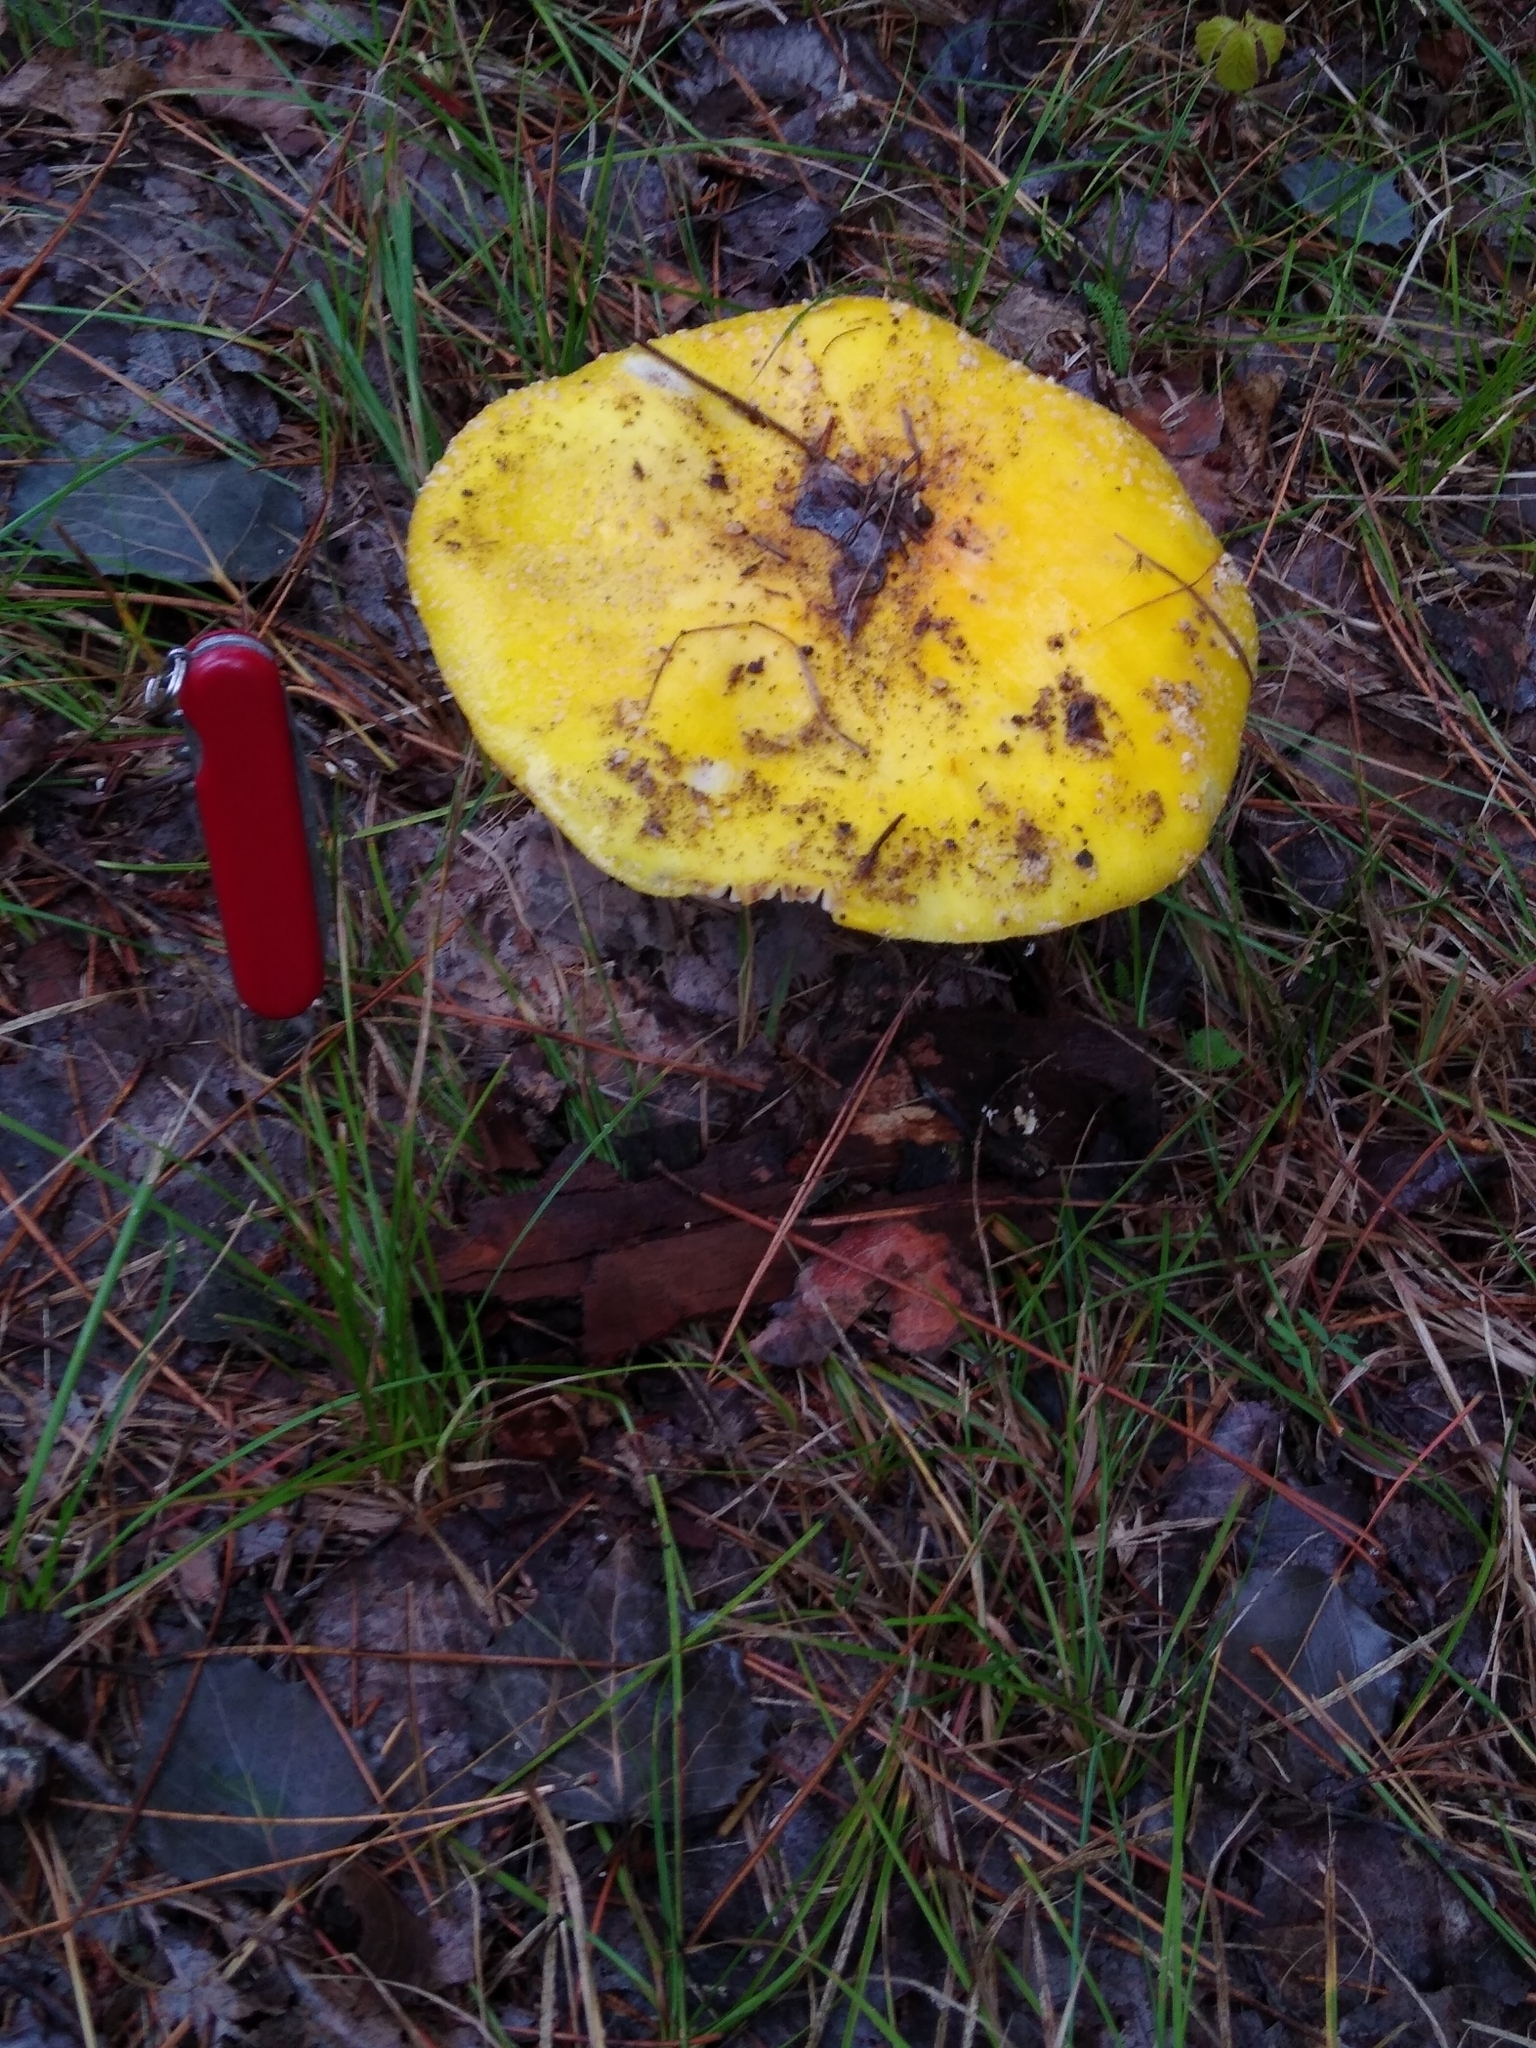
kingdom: Fungi
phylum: Basidiomycota
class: Agaricomycetes
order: Agaricales
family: Amanitaceae
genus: Amanita
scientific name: Amanita muscaria
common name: Fly agaric
